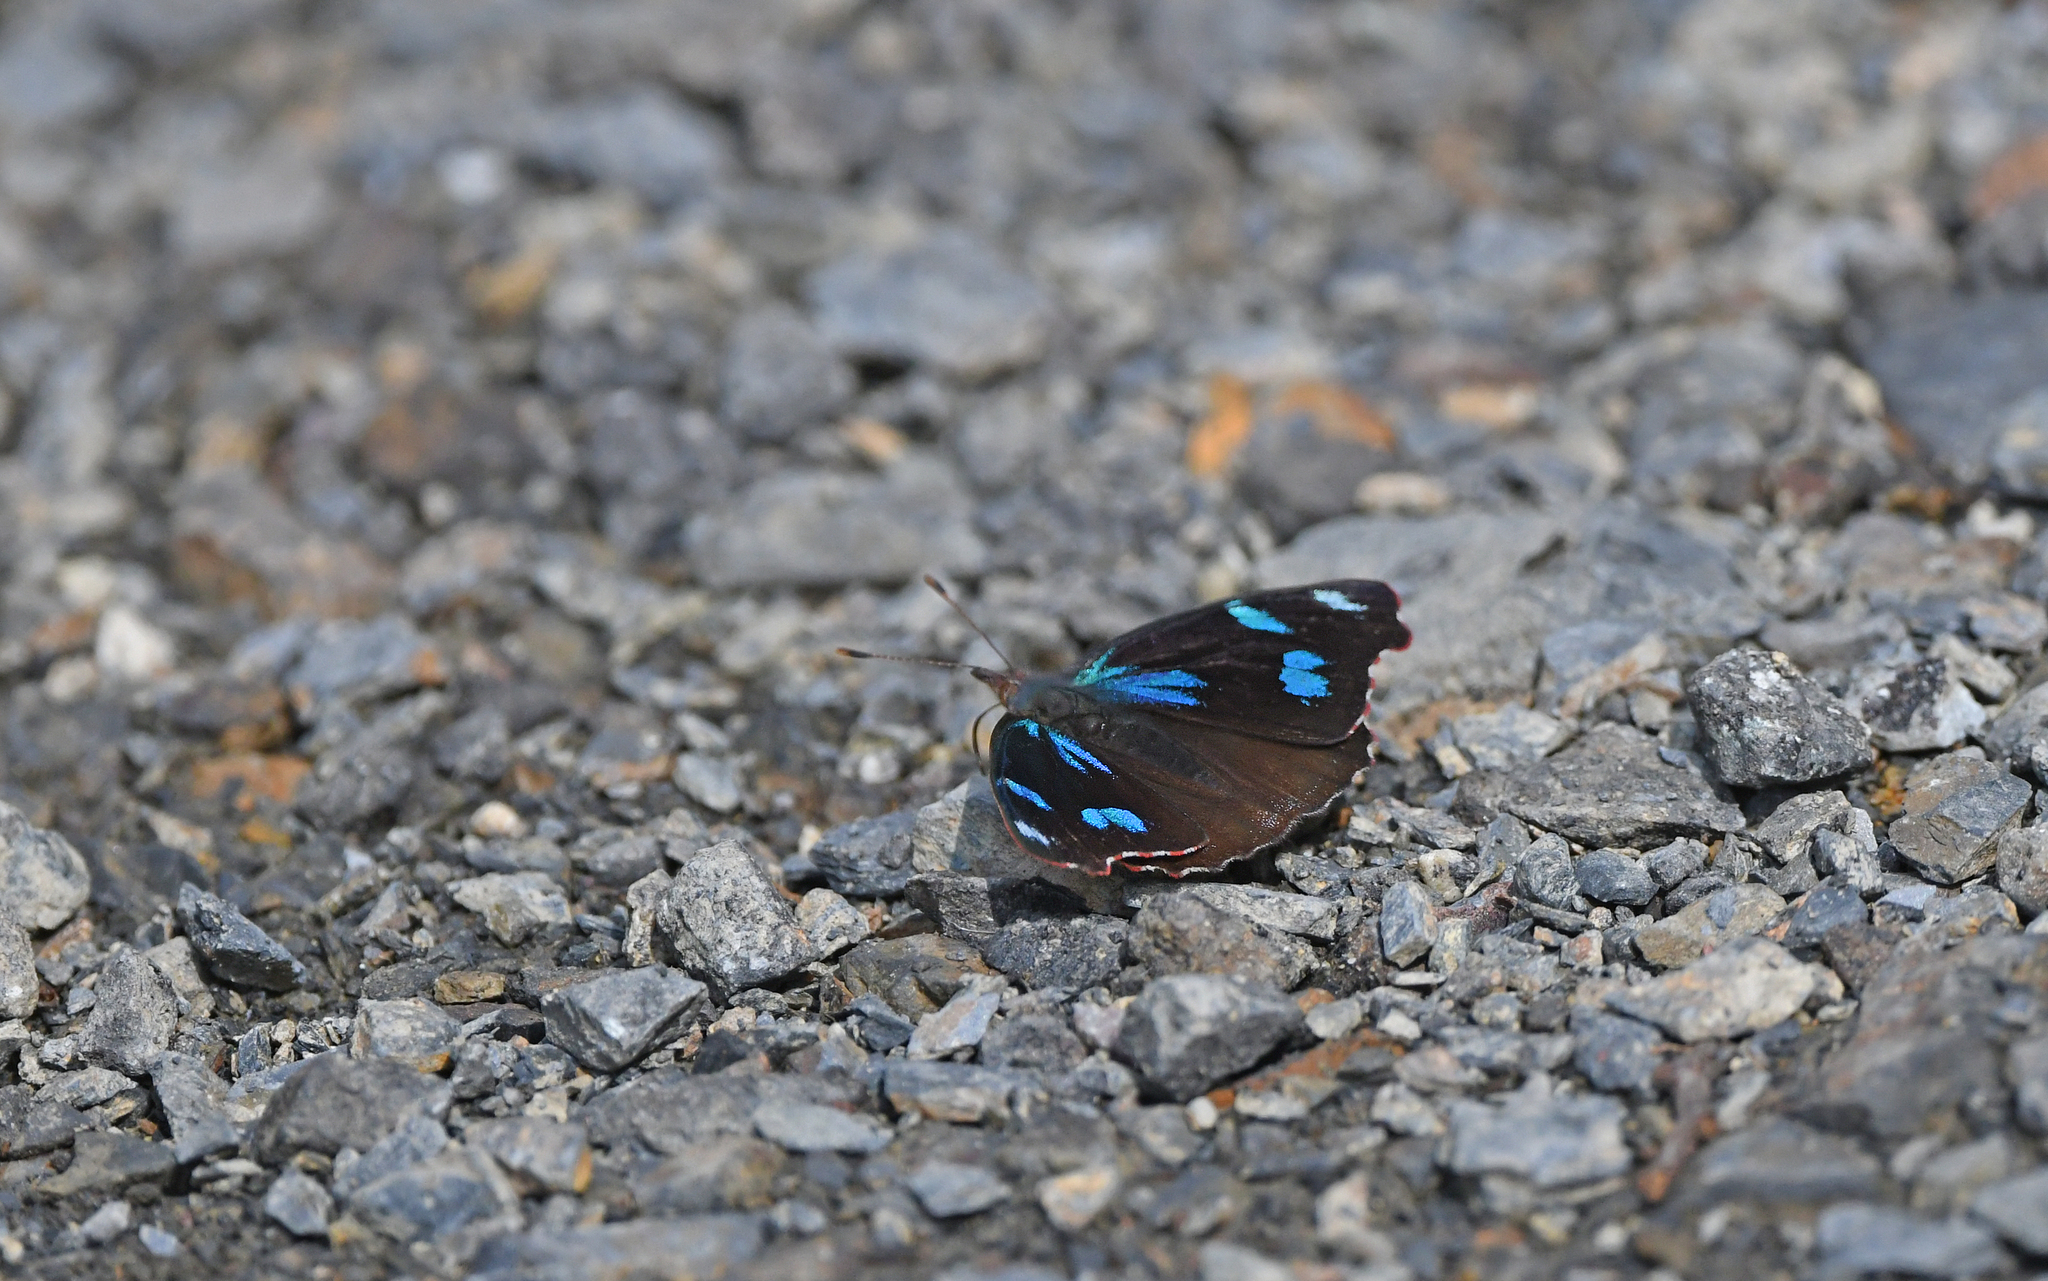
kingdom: Animalia
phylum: Arthropoda
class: Insecta
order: Lepidoptera
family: Nymphalidae
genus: Perisama
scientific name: Perisama diotima
